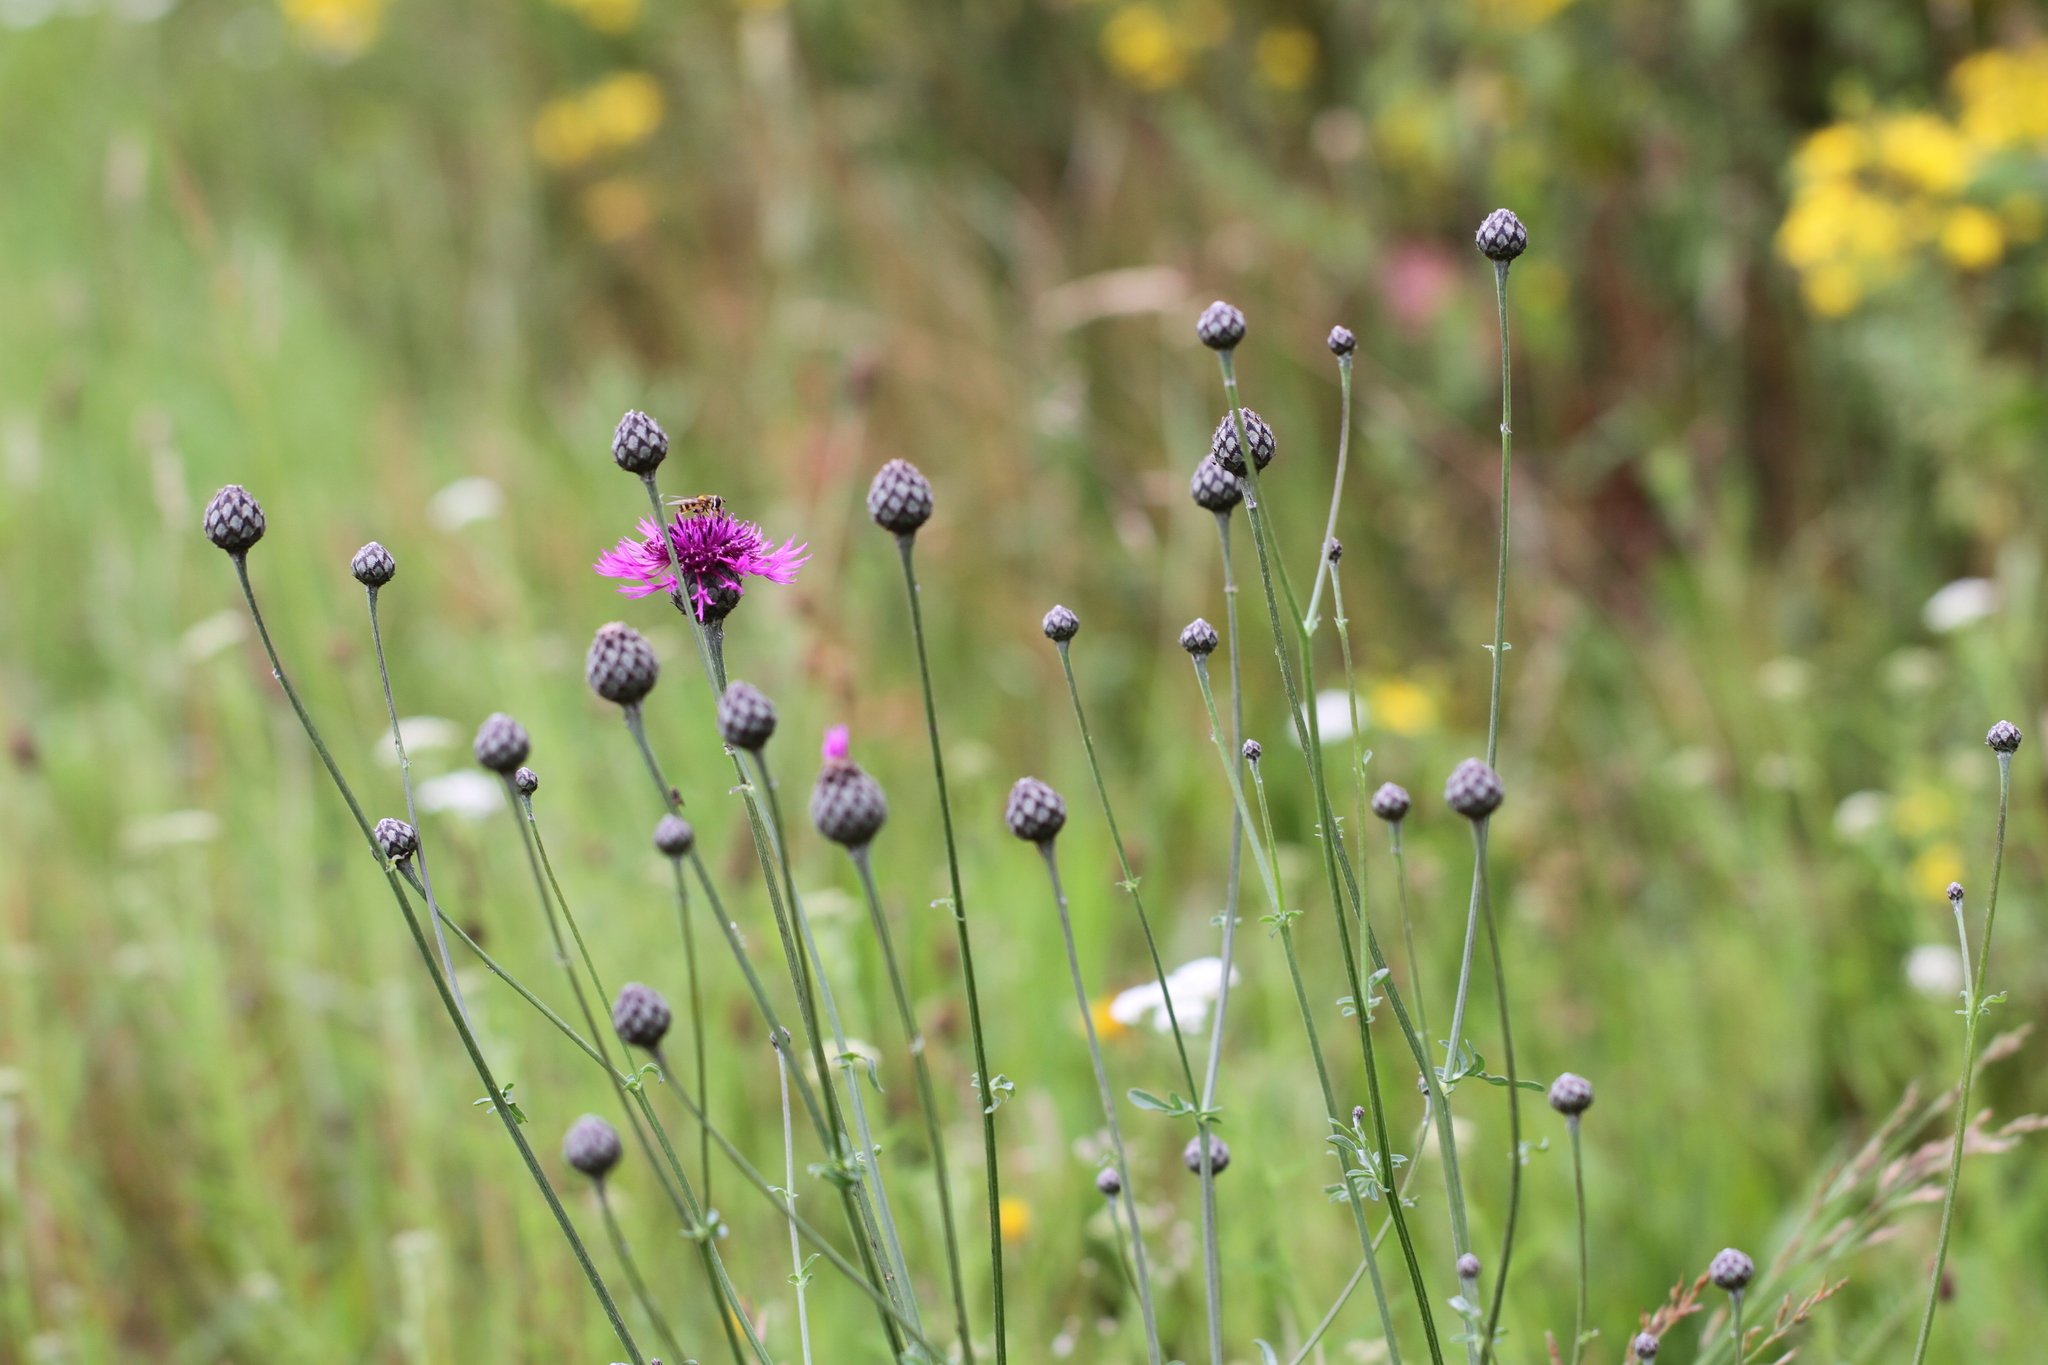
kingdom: Plantae
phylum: Tracheophyta
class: Magnoliopsida
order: Asterales
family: Asteraceae
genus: Centaurea
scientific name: Centaurea scabiosa
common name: Greater knapweed
